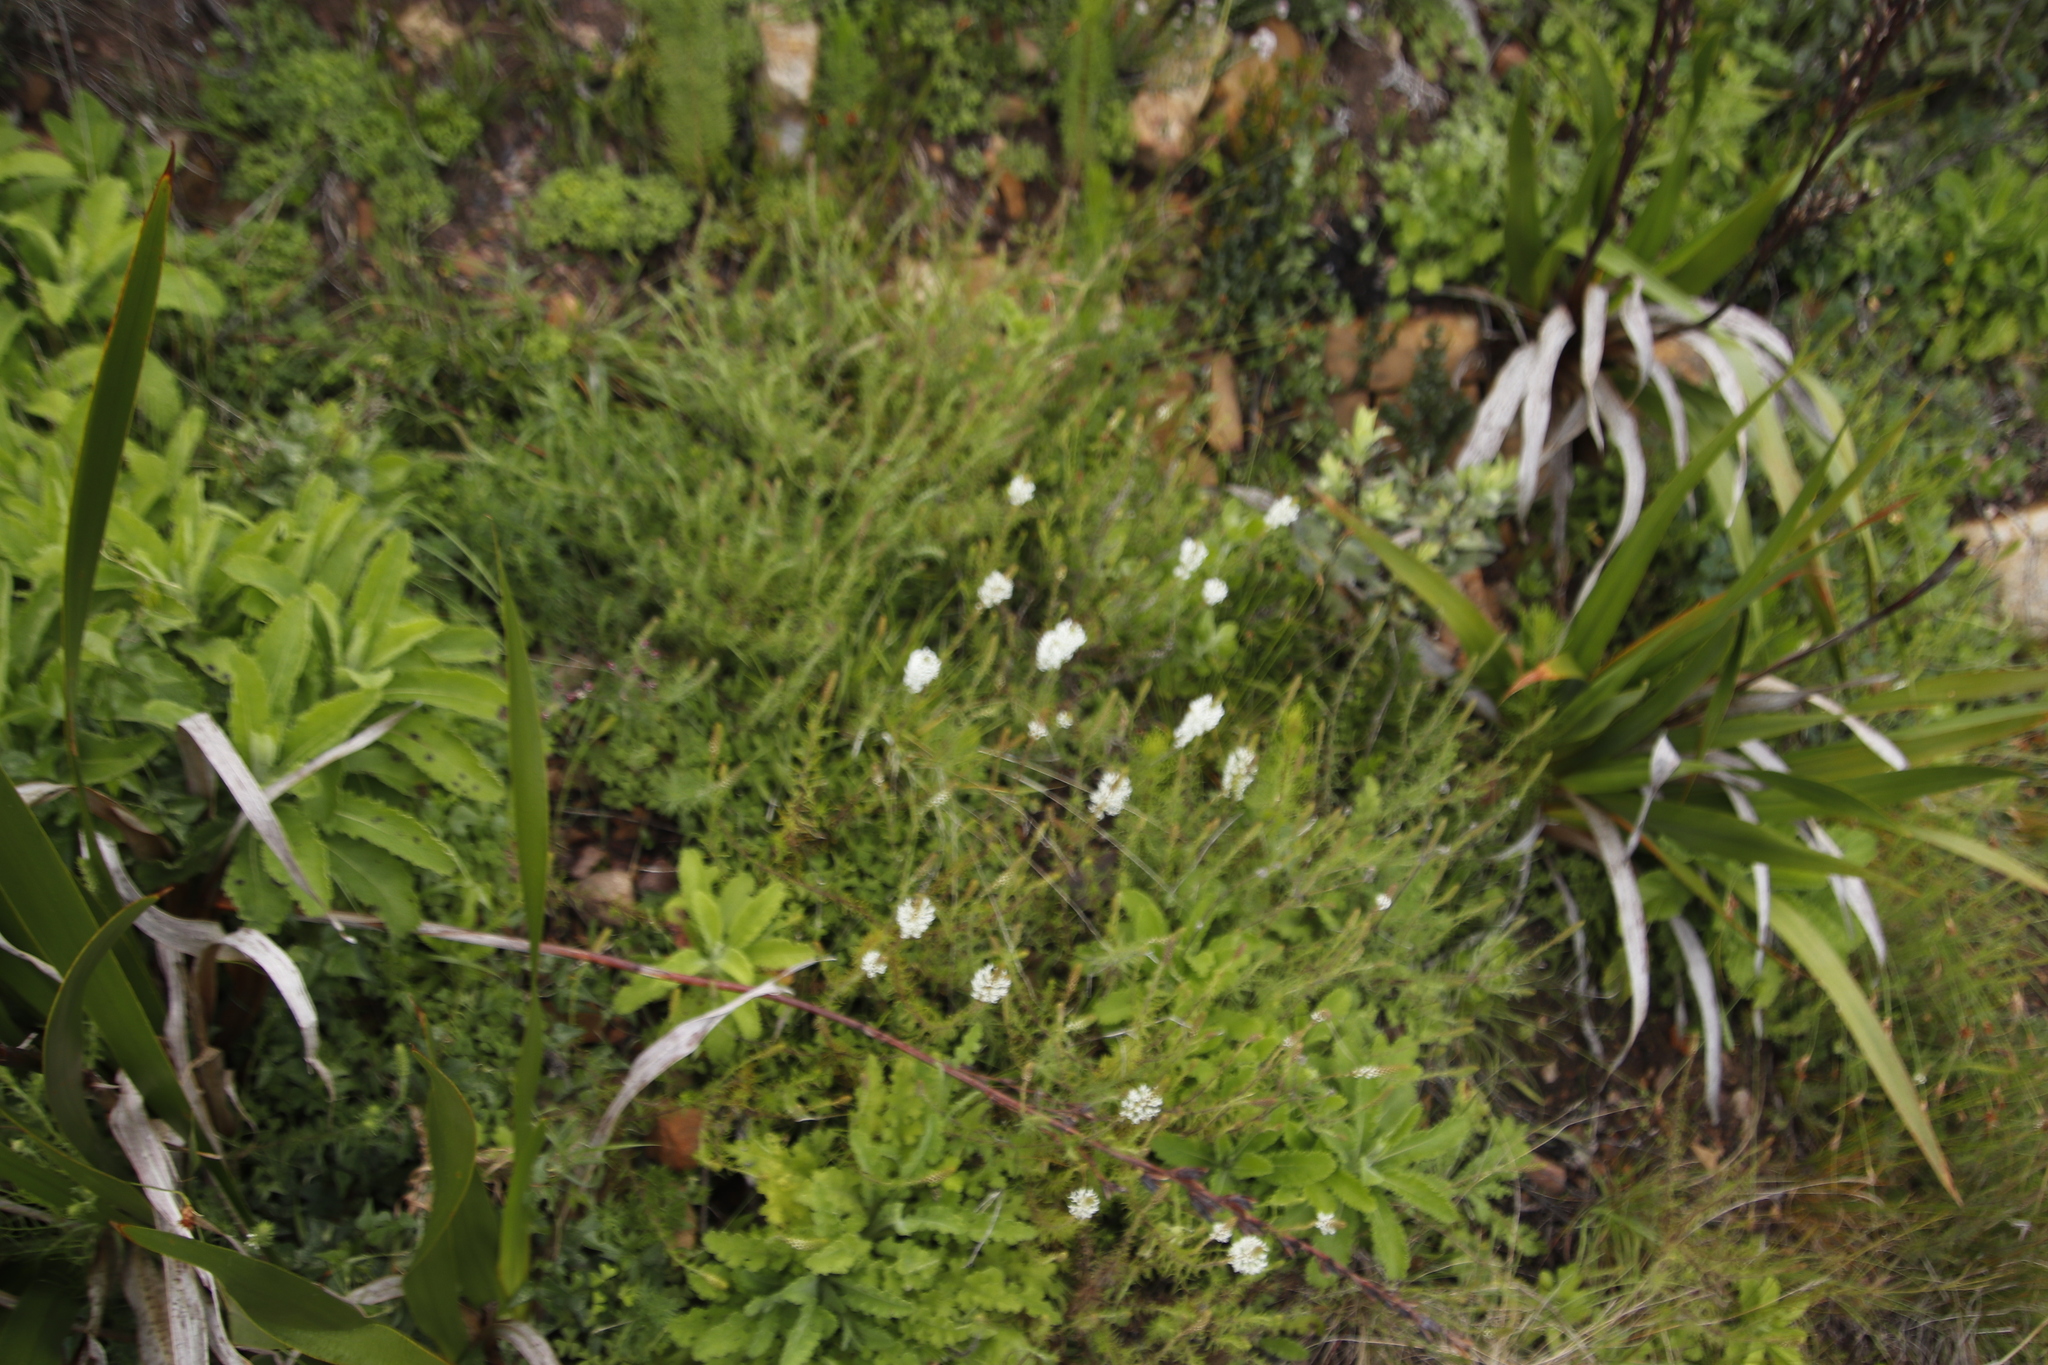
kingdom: Plantae
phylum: Tracheophyta
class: Magnoliopsida
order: Lamiales
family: Scrophulariaceae
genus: Dischisma
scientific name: Dischisma ciliatum
